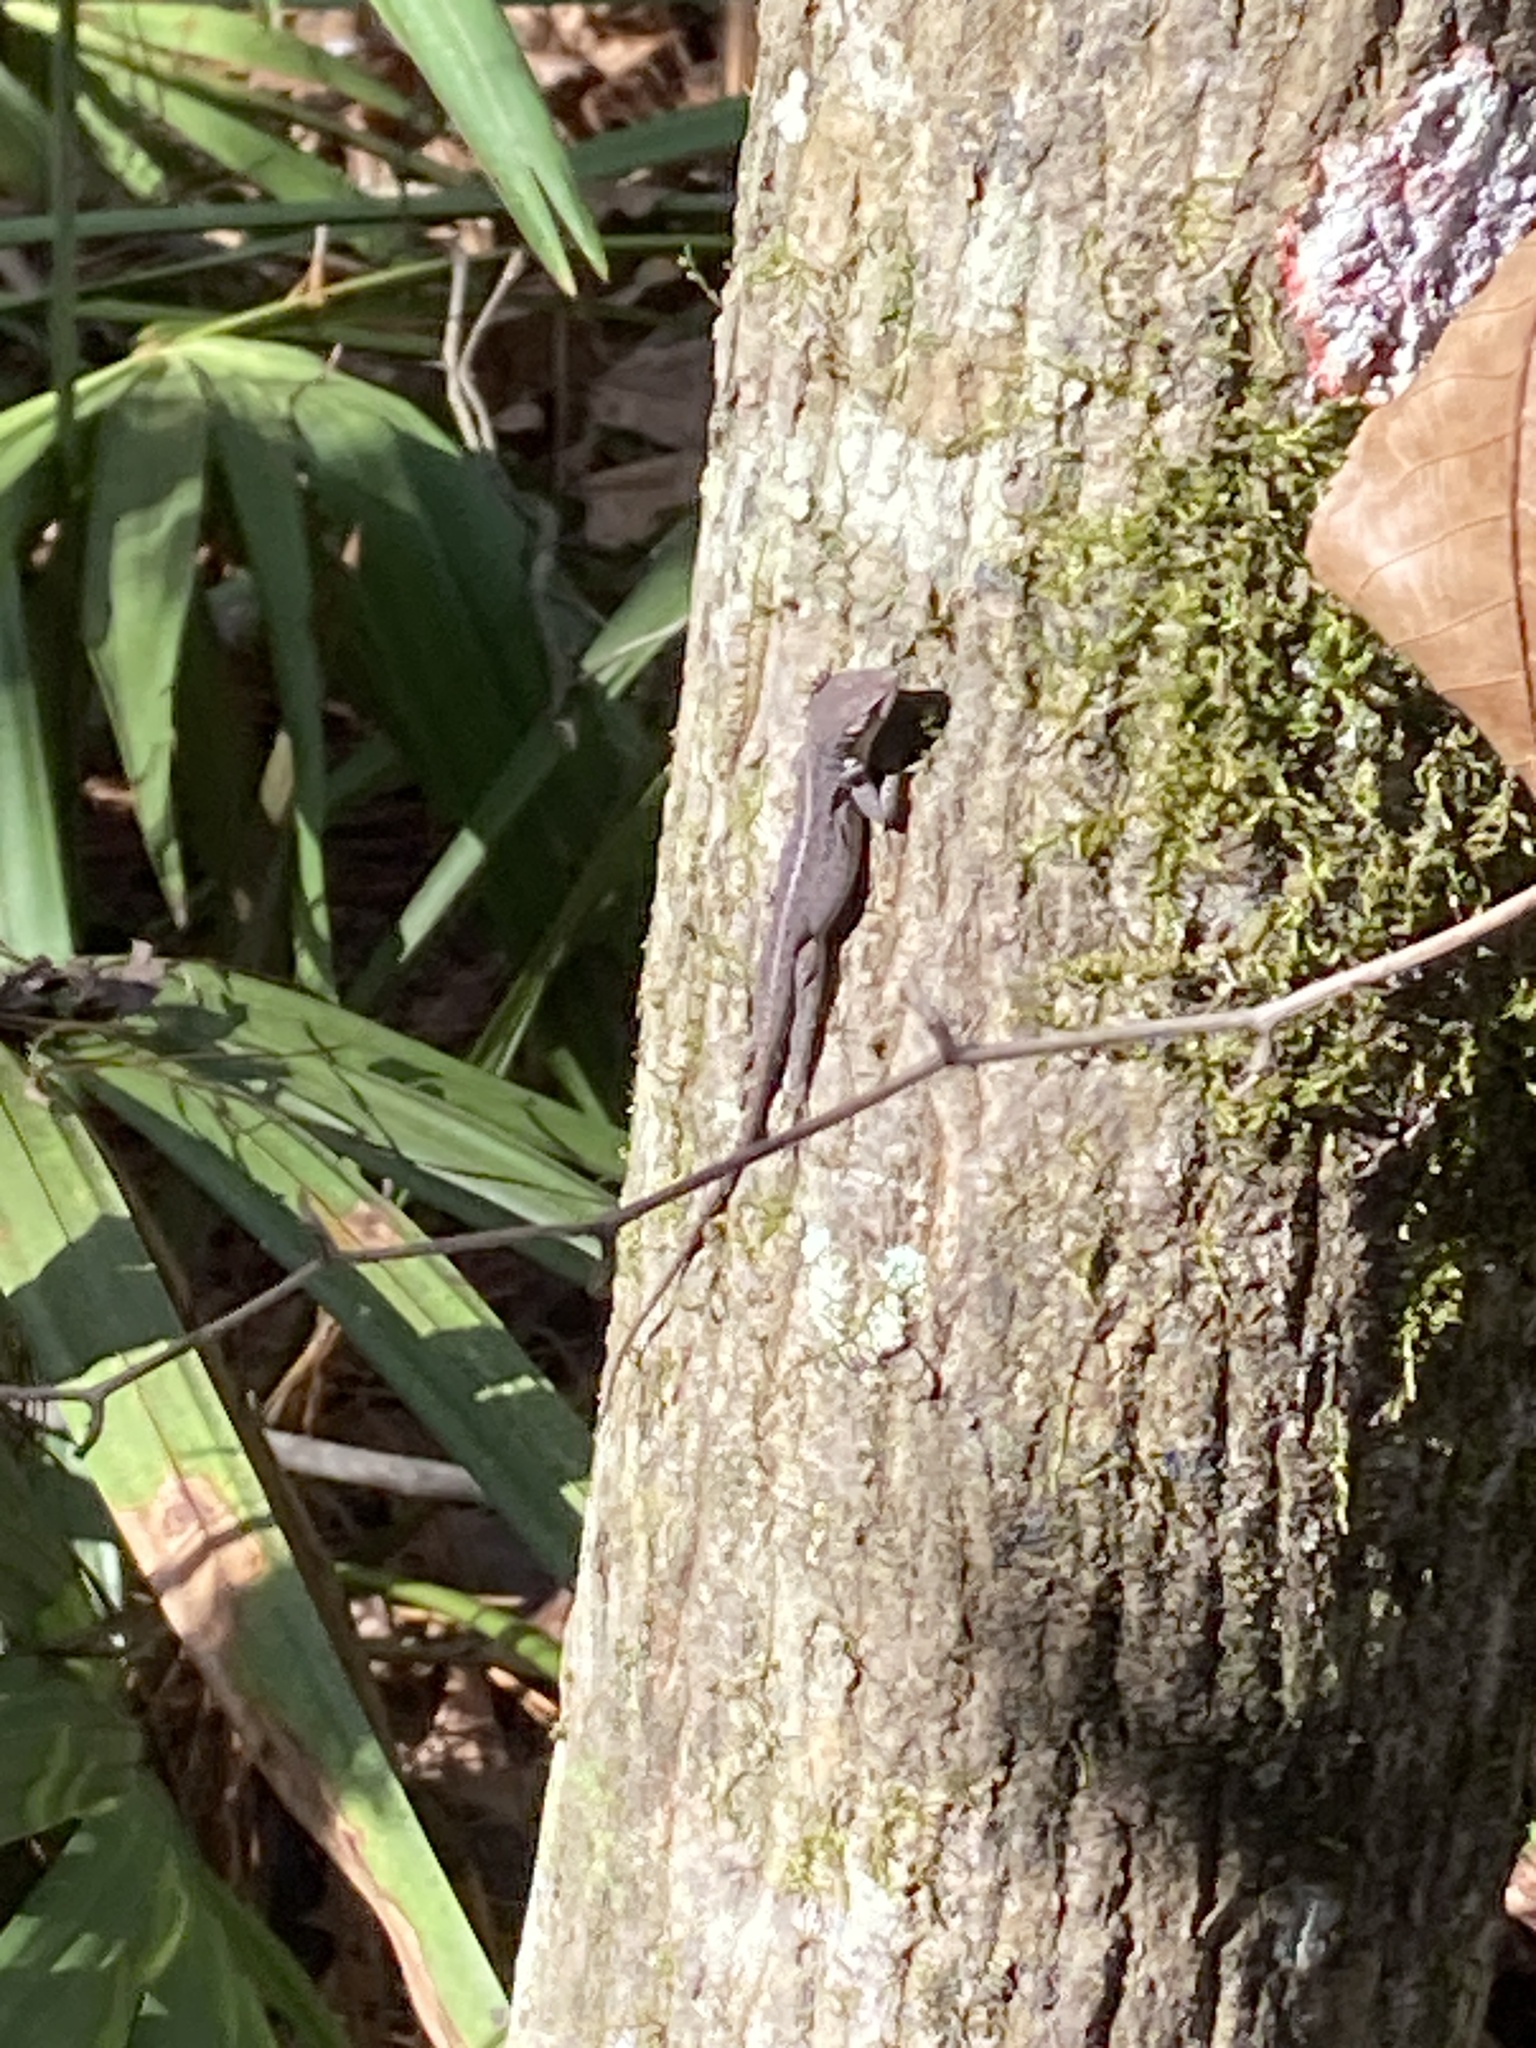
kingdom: Animalia
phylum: Chordata
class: Squamata
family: Dactyloidae
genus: Anolis
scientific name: Anolis carolinensis
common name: Green anole
